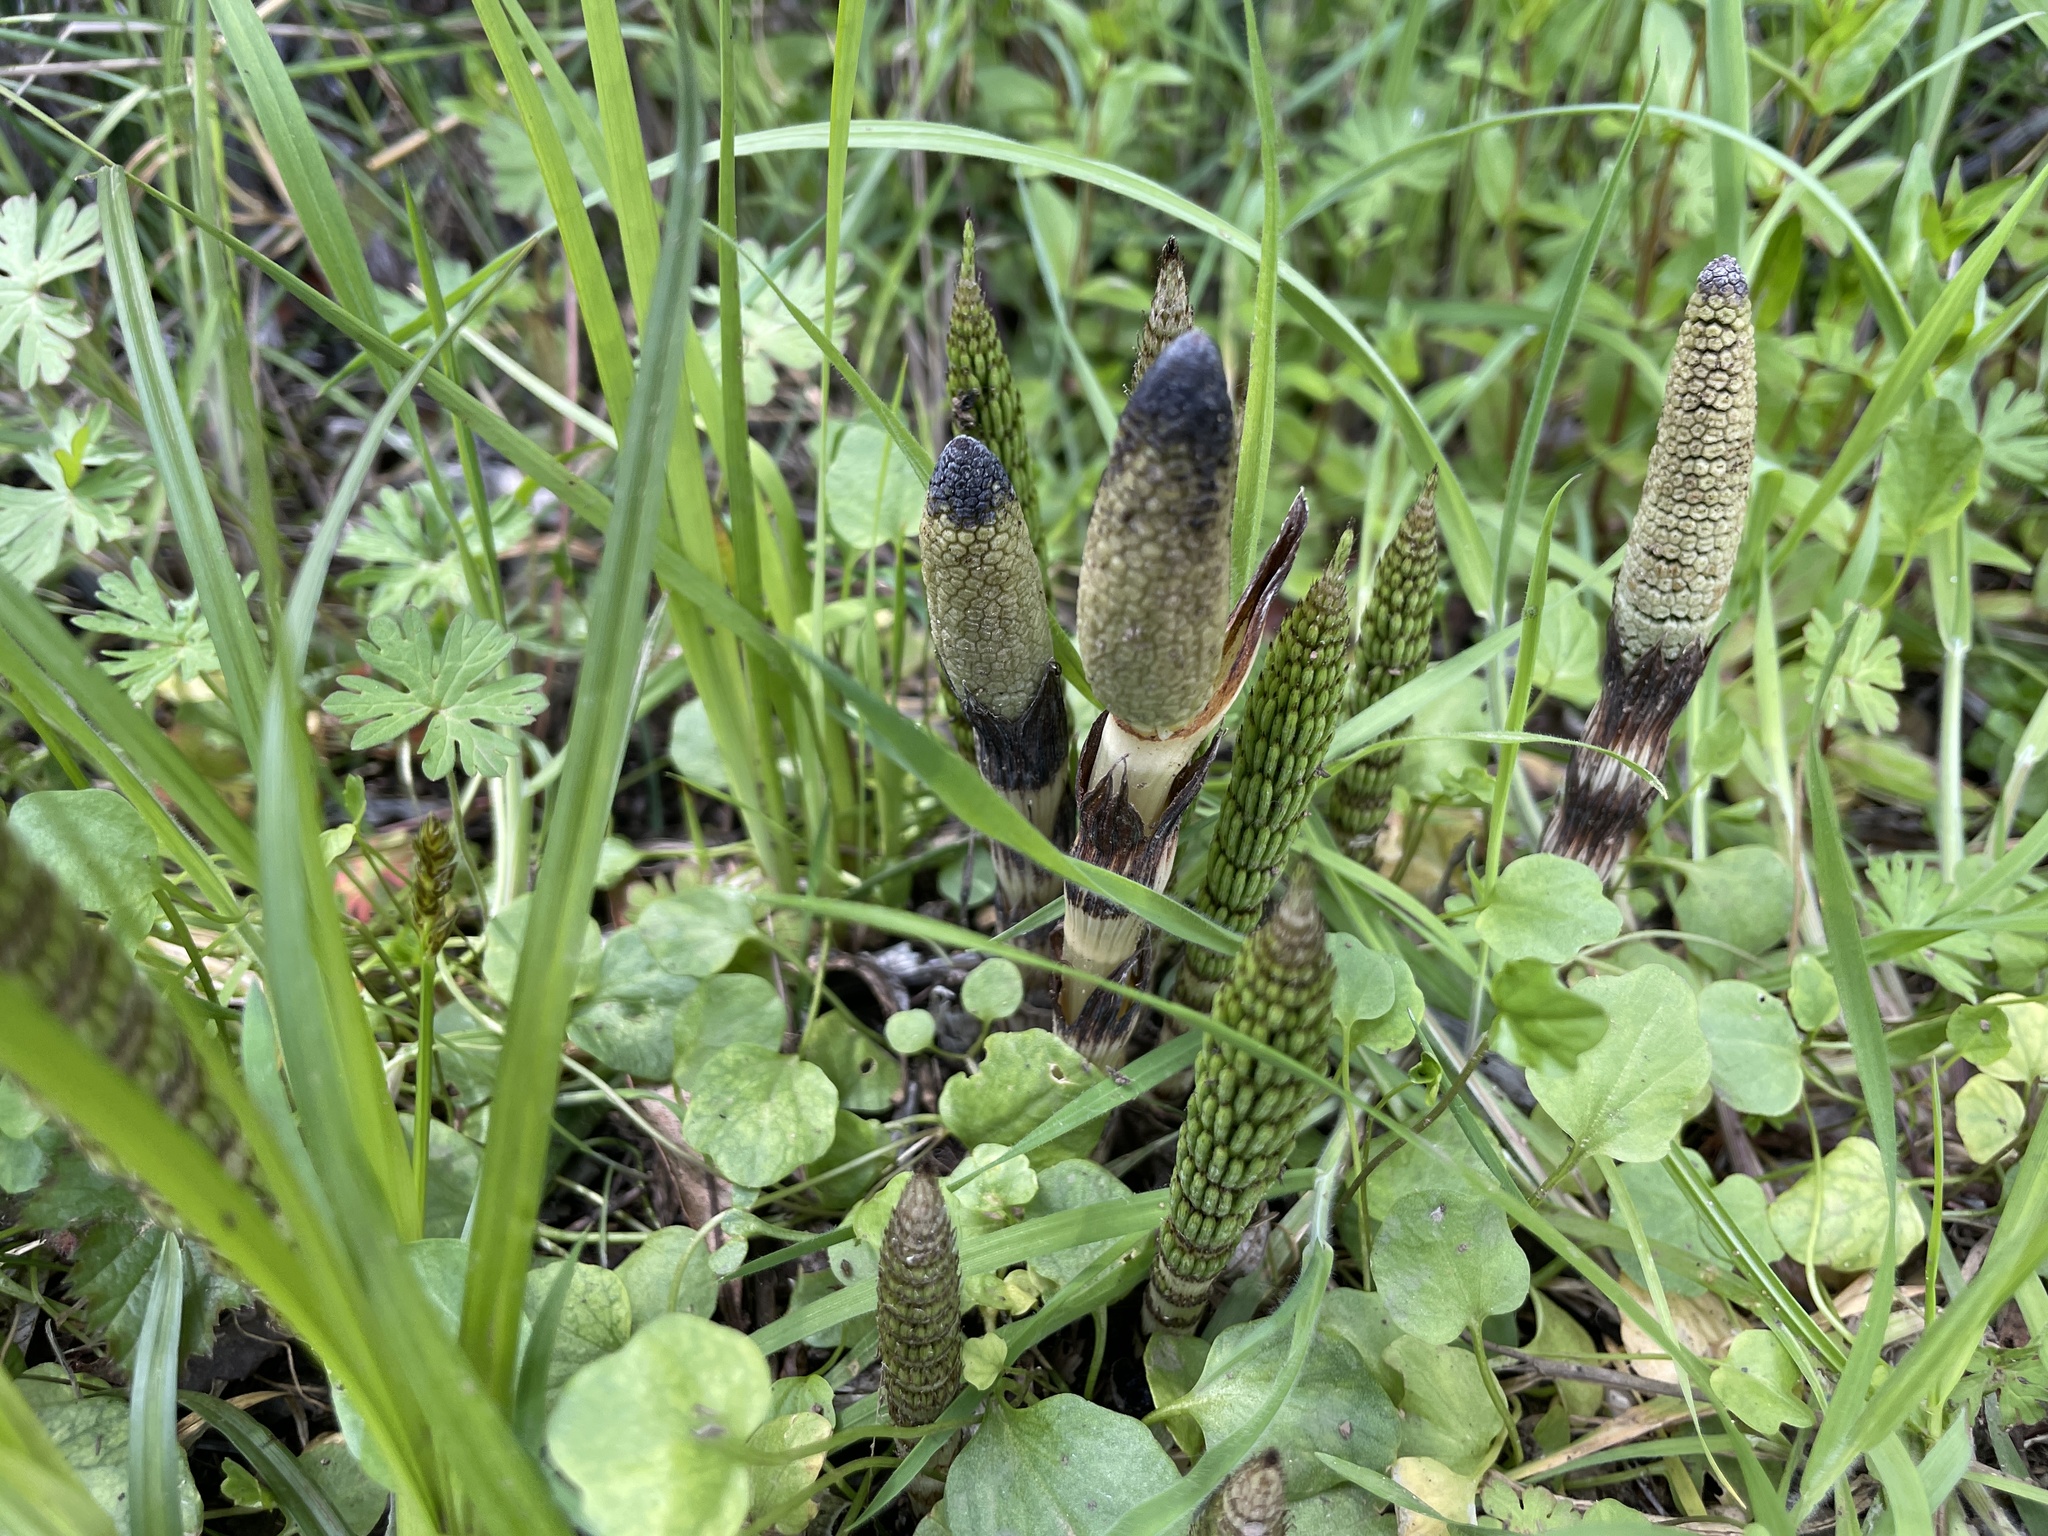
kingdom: Plantae
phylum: Tracheophyta
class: Polypodiopsida
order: Equisetales
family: Equisetaceae
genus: Equisetum
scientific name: Equisetum telmateia
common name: Great horsetail
